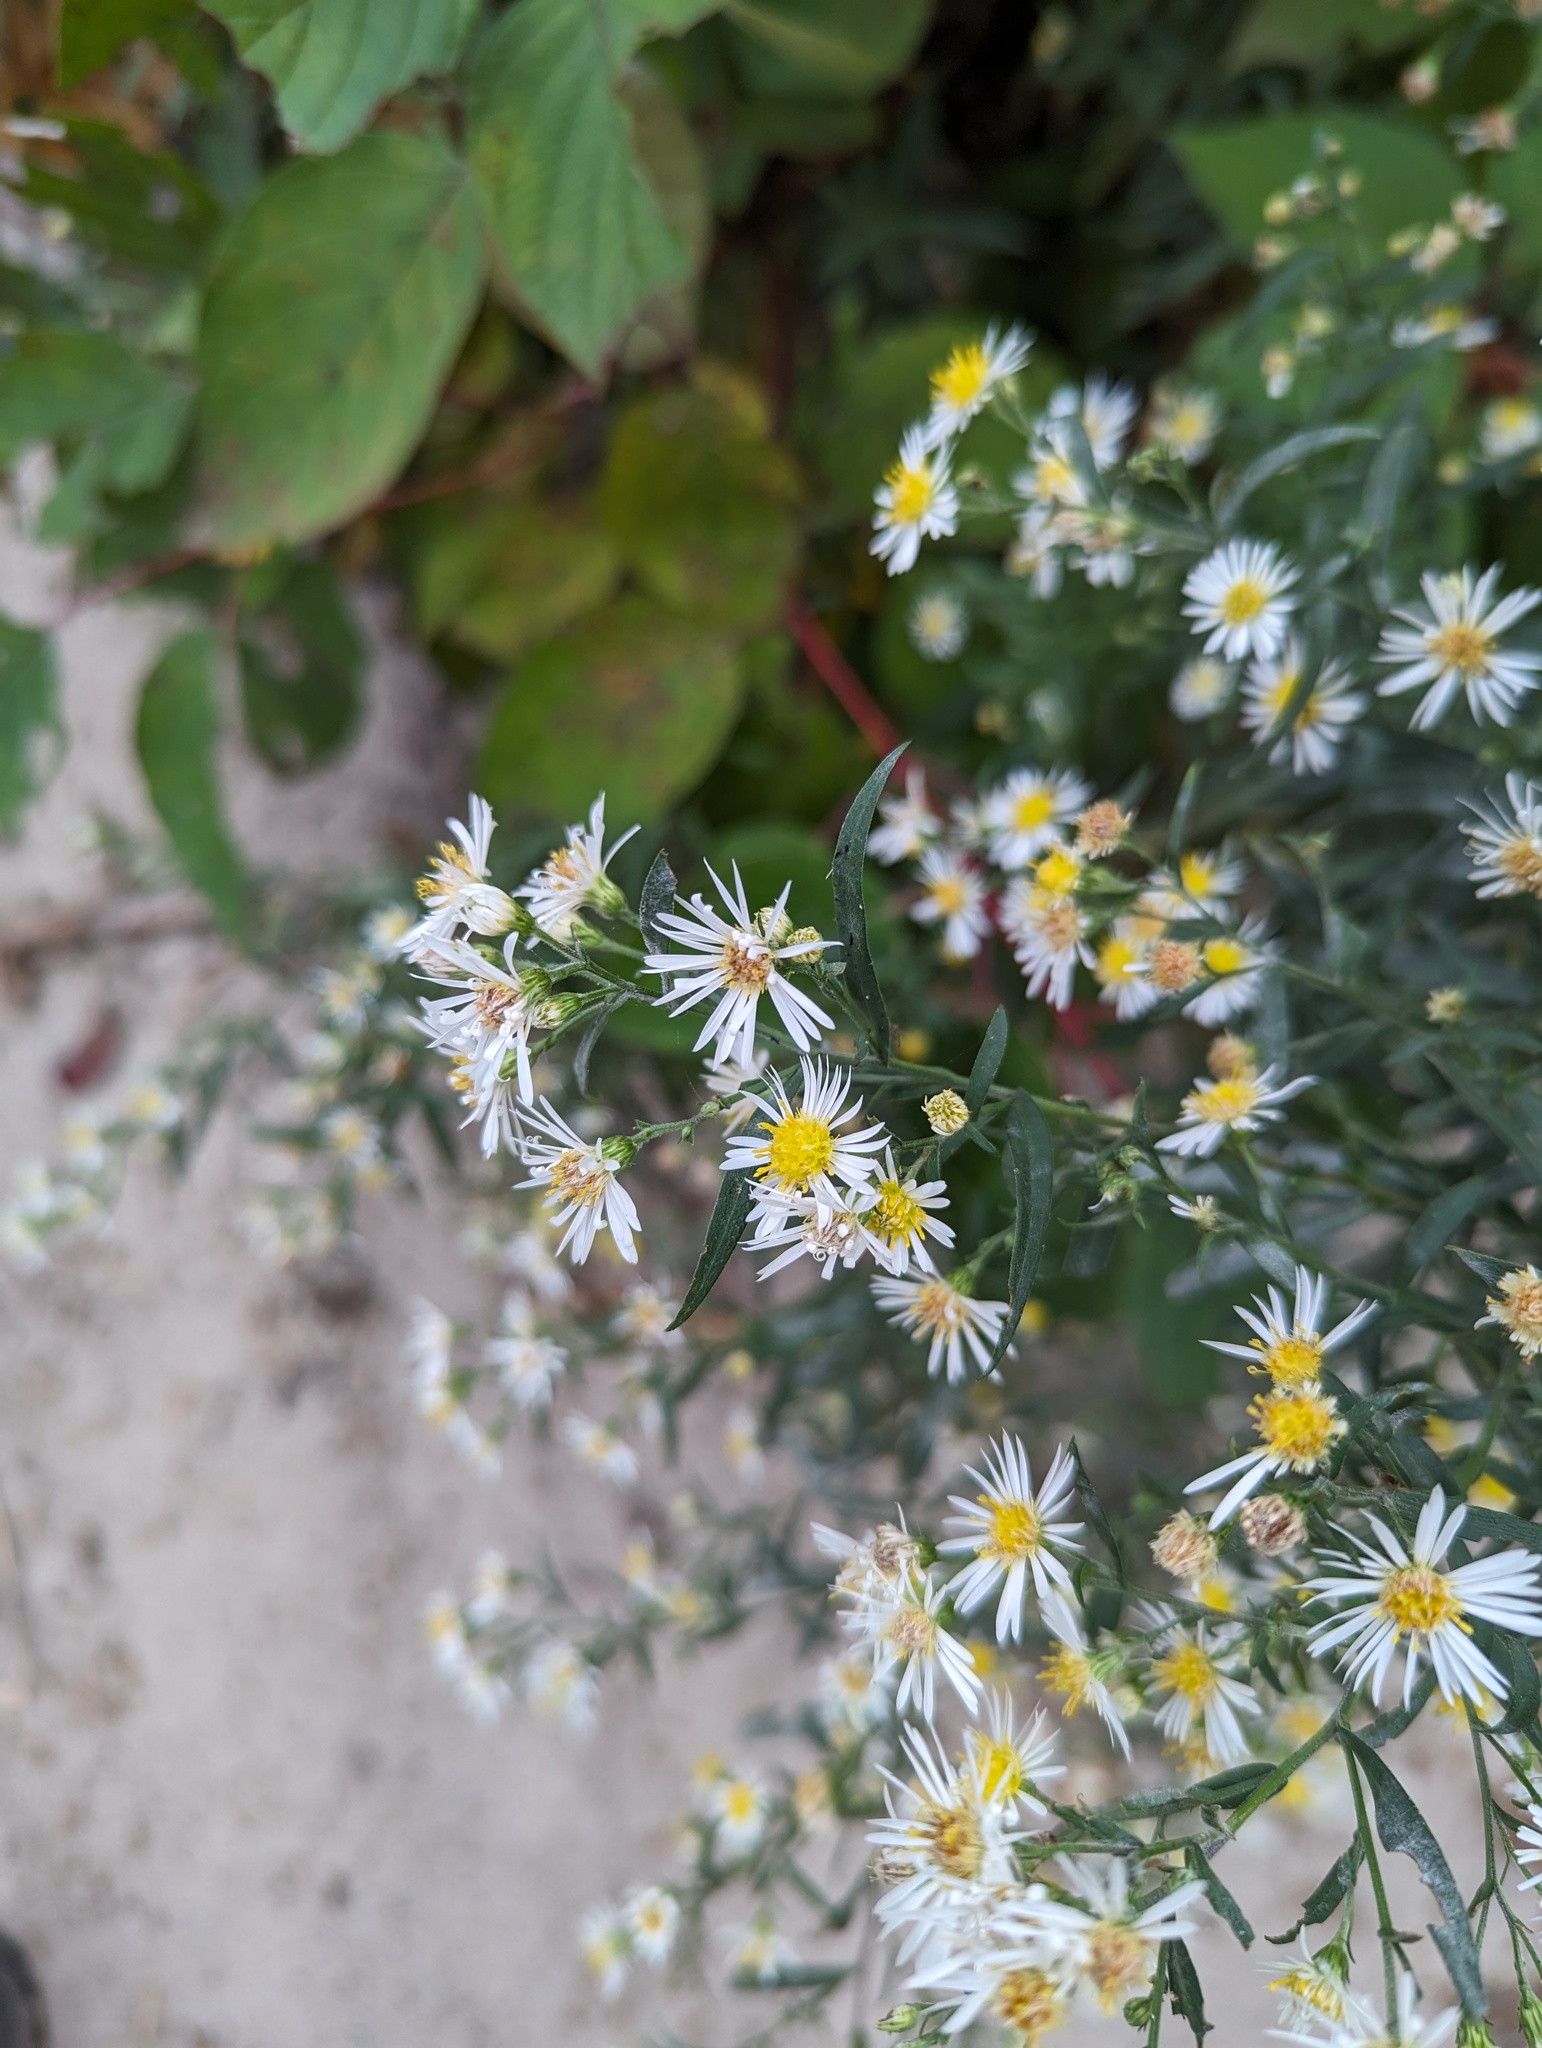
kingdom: Plantae
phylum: Tracheophyta
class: Magnoliopsida
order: Asterales
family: Asteraceae
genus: Symphyotrichum
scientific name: Symphyotrichum lanceolatum
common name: Panicled aster
